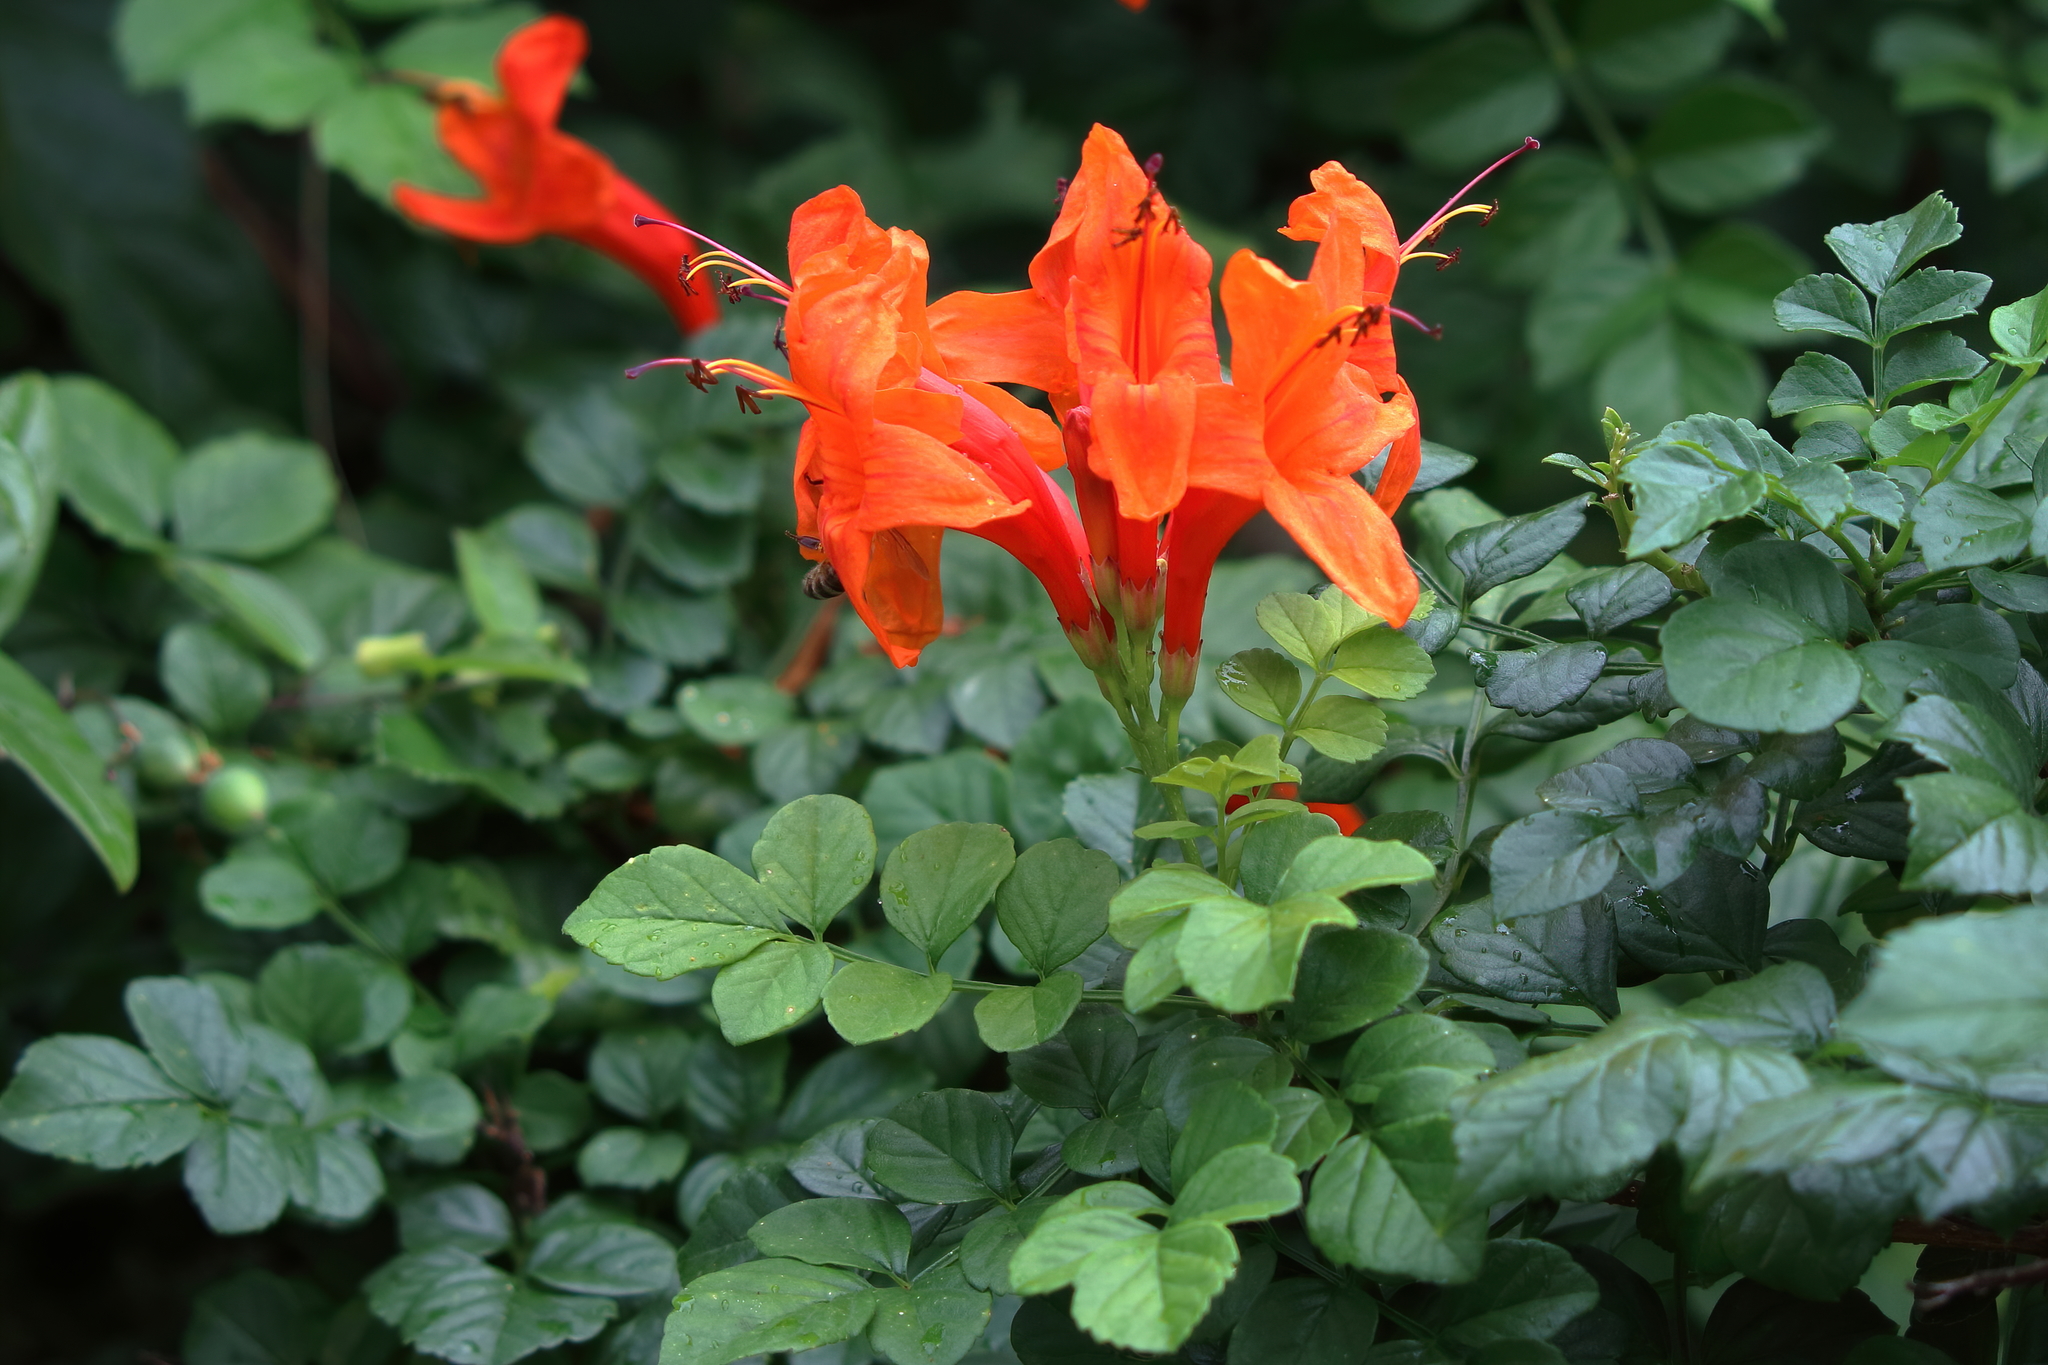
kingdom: Plantae
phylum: Tracheophyta
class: Magnoliopsida
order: Lamiales
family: Bignoniaceae
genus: Tecomaria
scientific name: Tecomaria capensis
